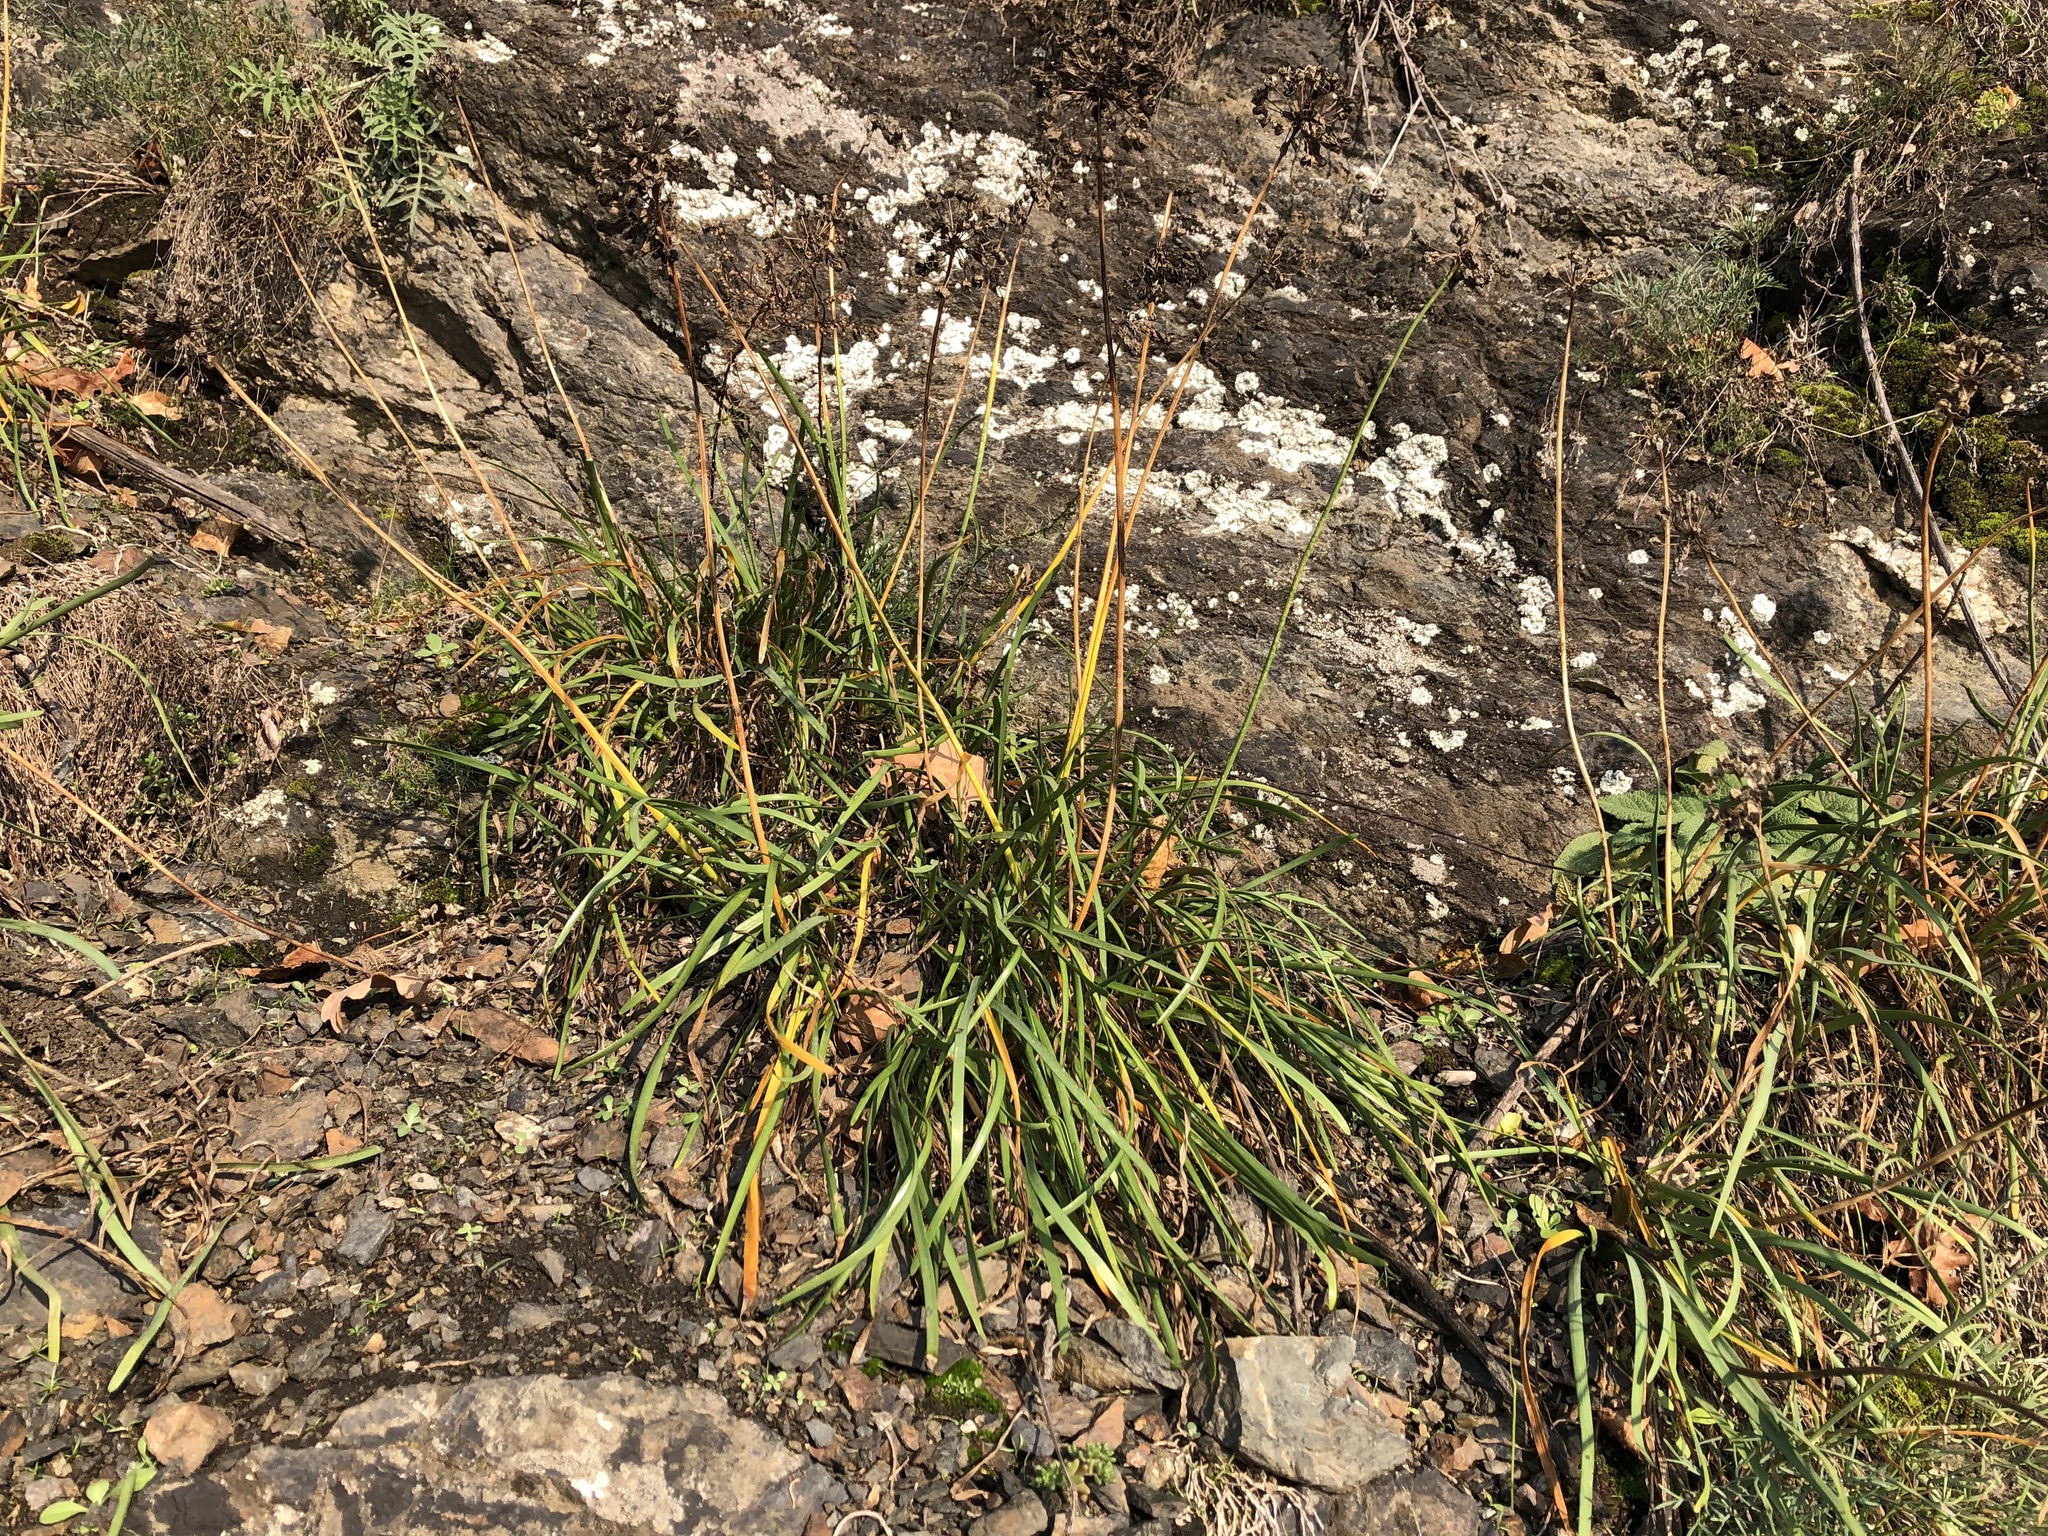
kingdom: Plantae
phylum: Tracheophyta
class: Liliopsida
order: Asparagales
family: Amaryllidaceae
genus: Allium
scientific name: Allium lusitanicum
